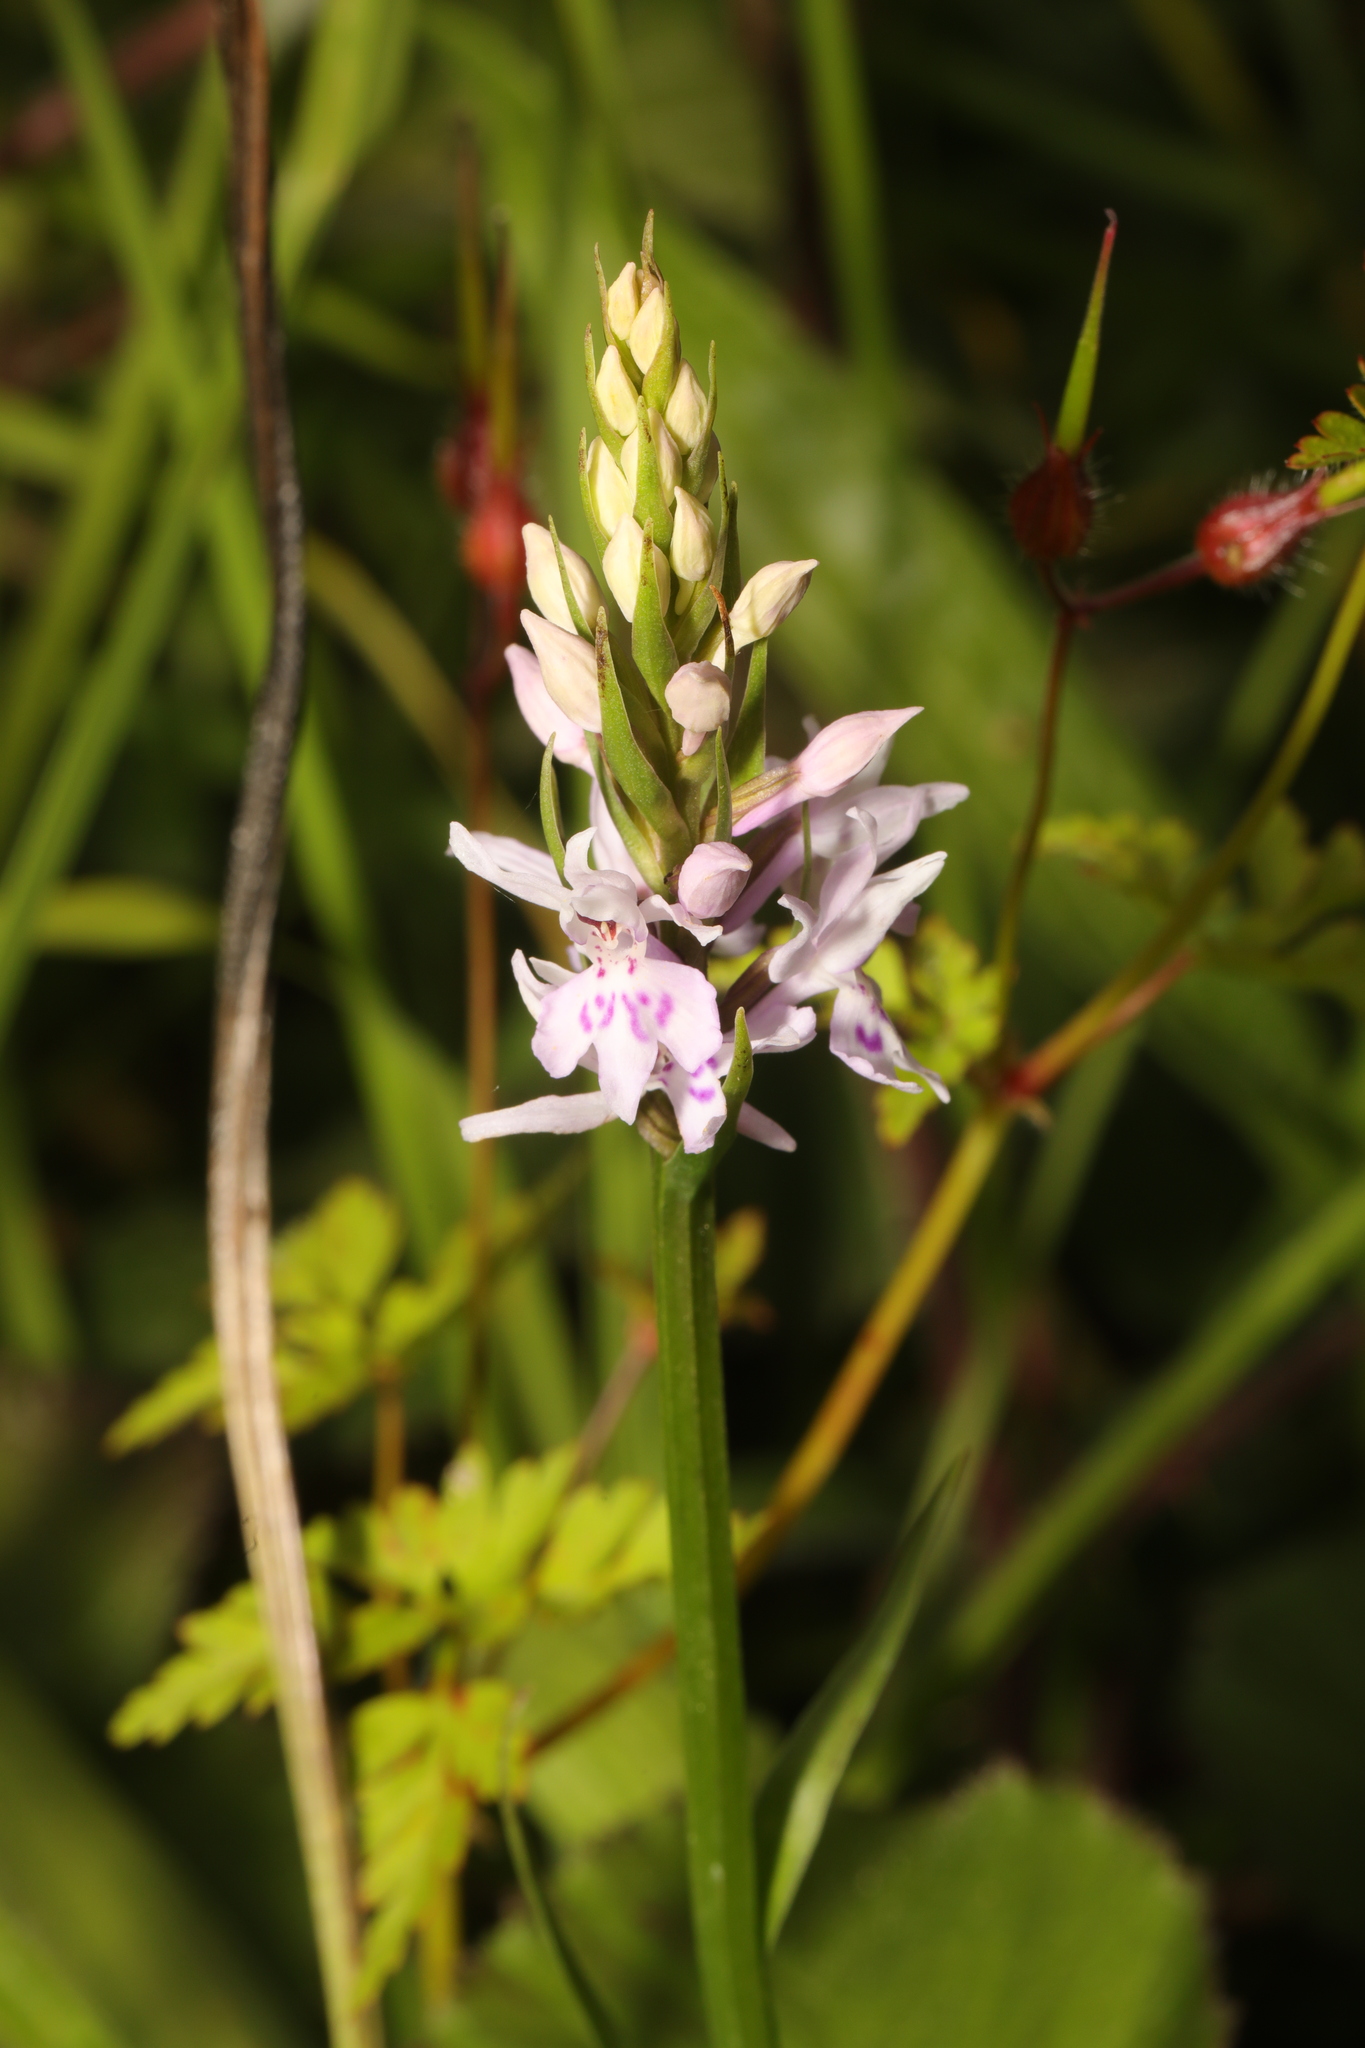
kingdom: Plantae
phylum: Tracheophyta
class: Liliopsida
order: Asparagales
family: Orchidaceae
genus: Dactylorhiza
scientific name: Dactylorhiza maculata
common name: Heath spotted-orchid
